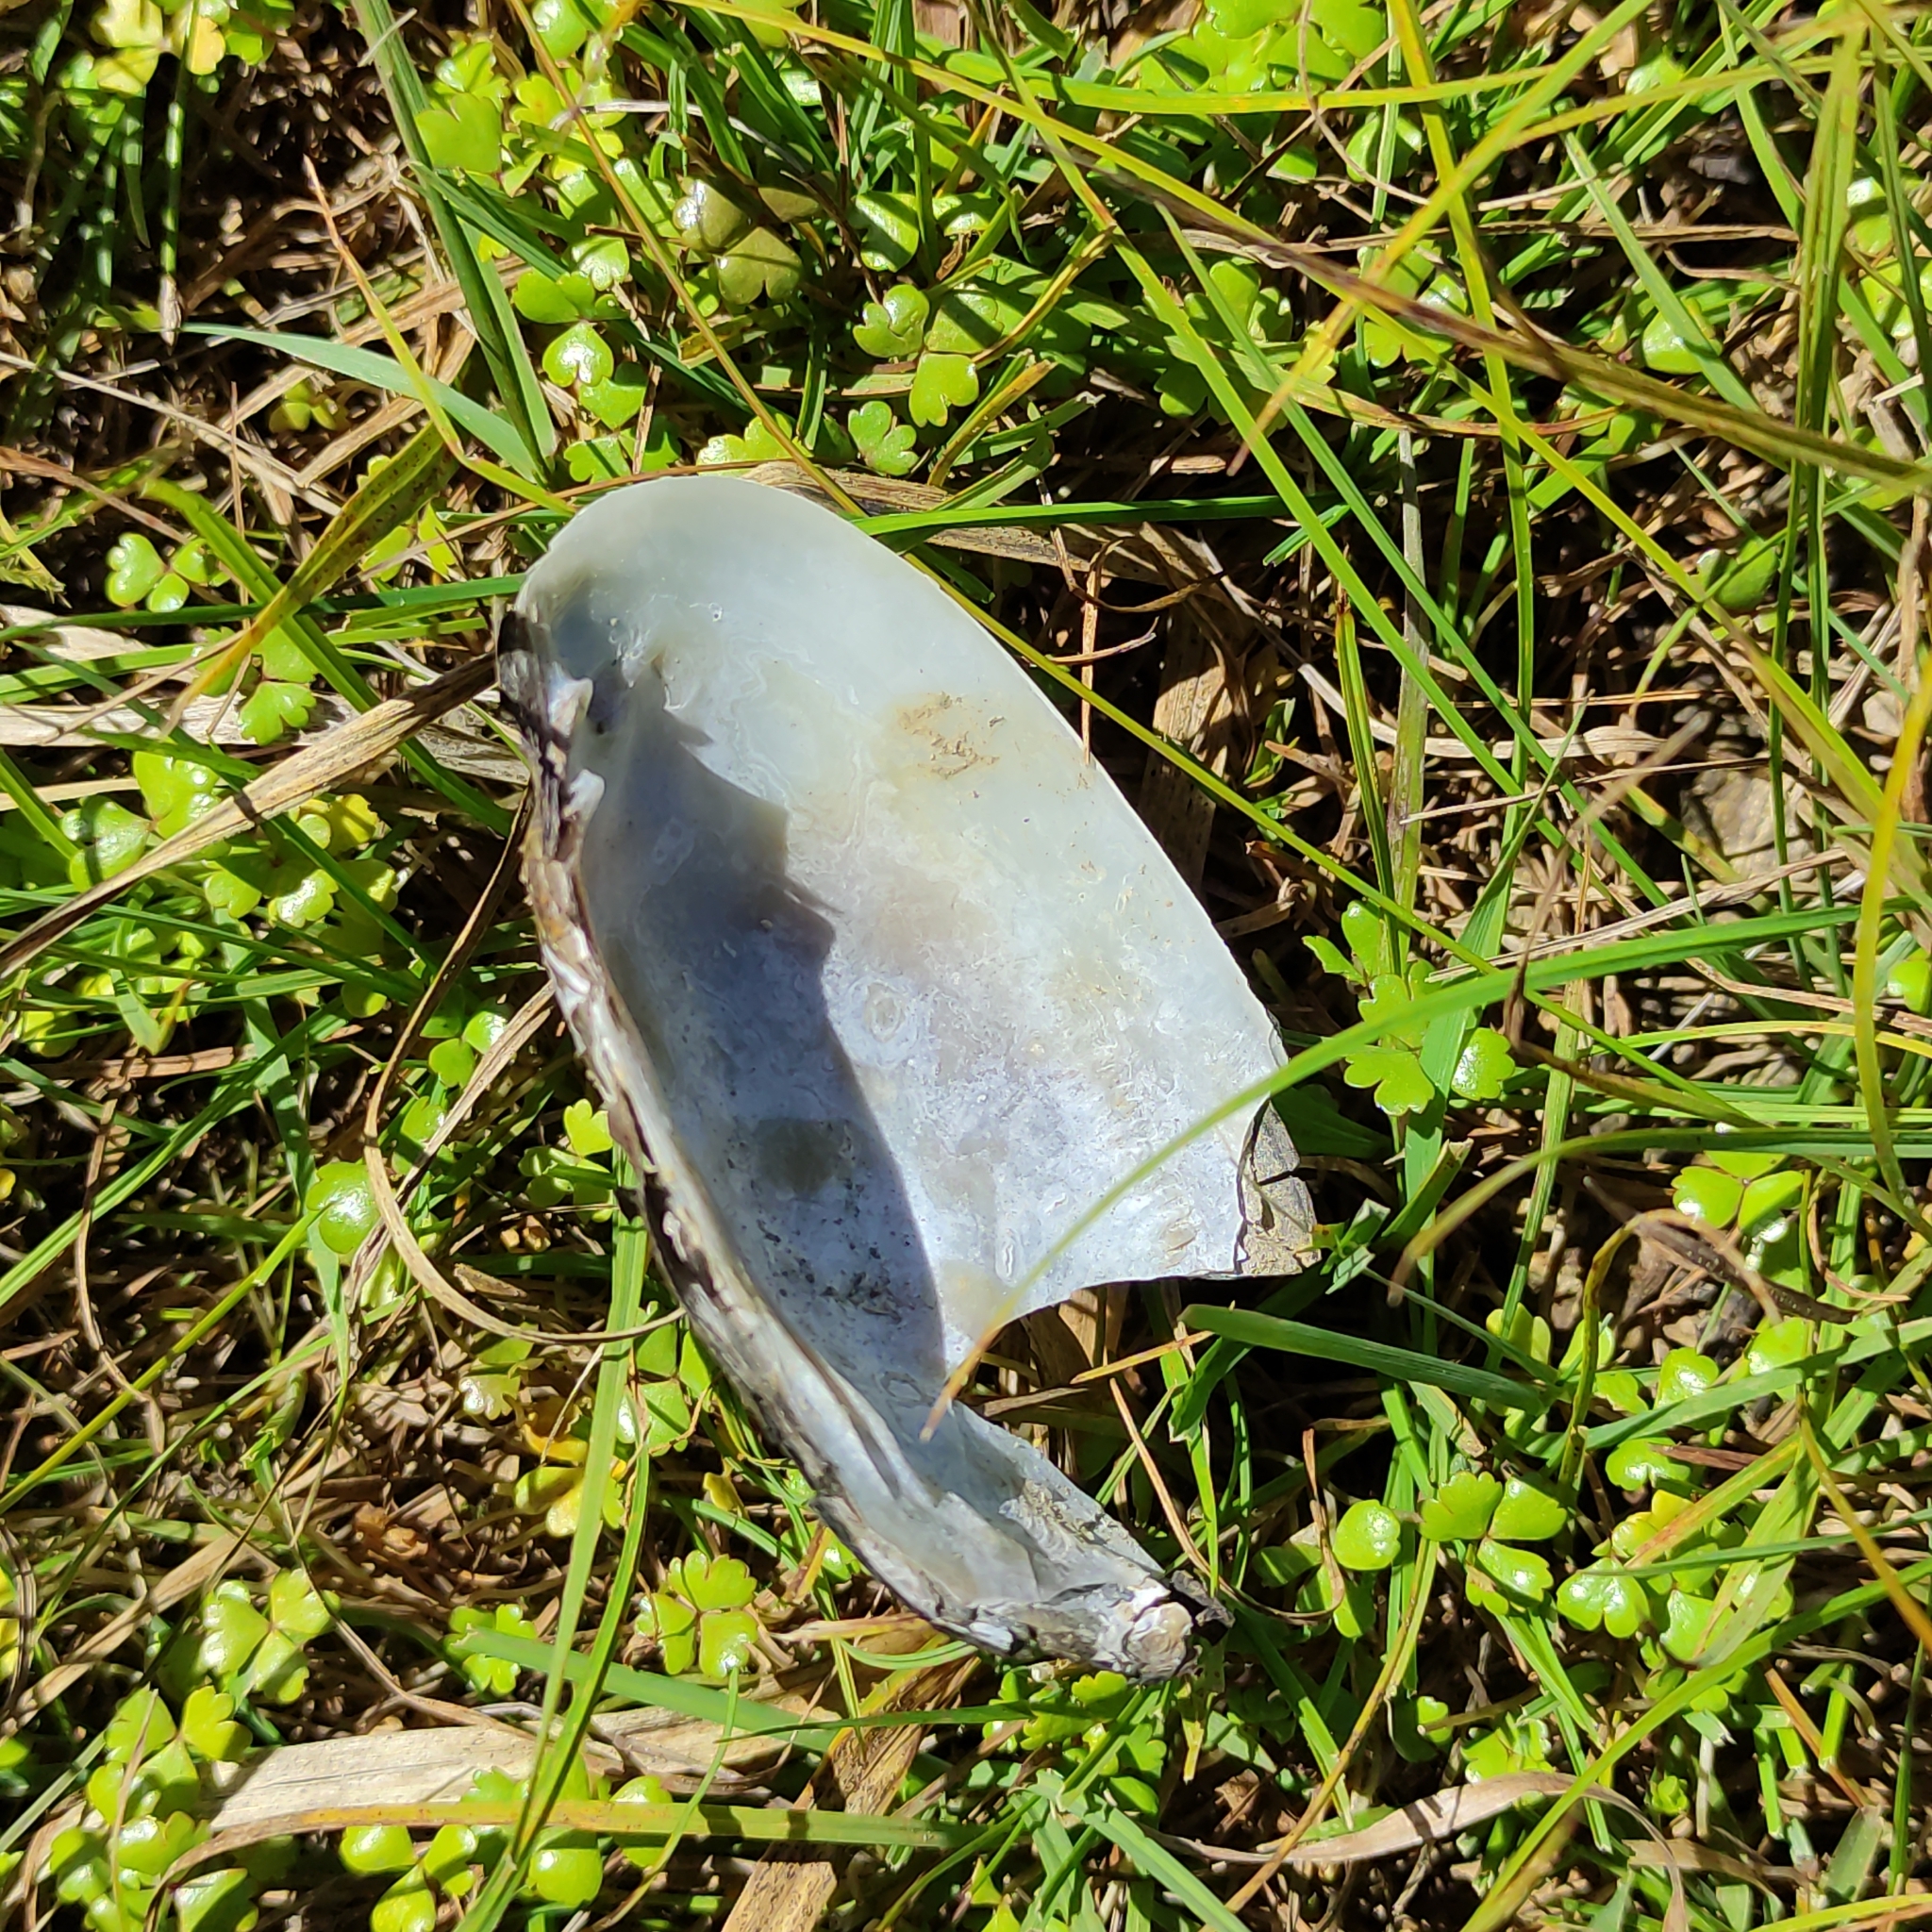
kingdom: Animalia
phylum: Mollusca
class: Bivalvia
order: Unionida
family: Hyriidae
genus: Echyridella
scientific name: Echyridella menziesii
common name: New zealand freshwater mussel
